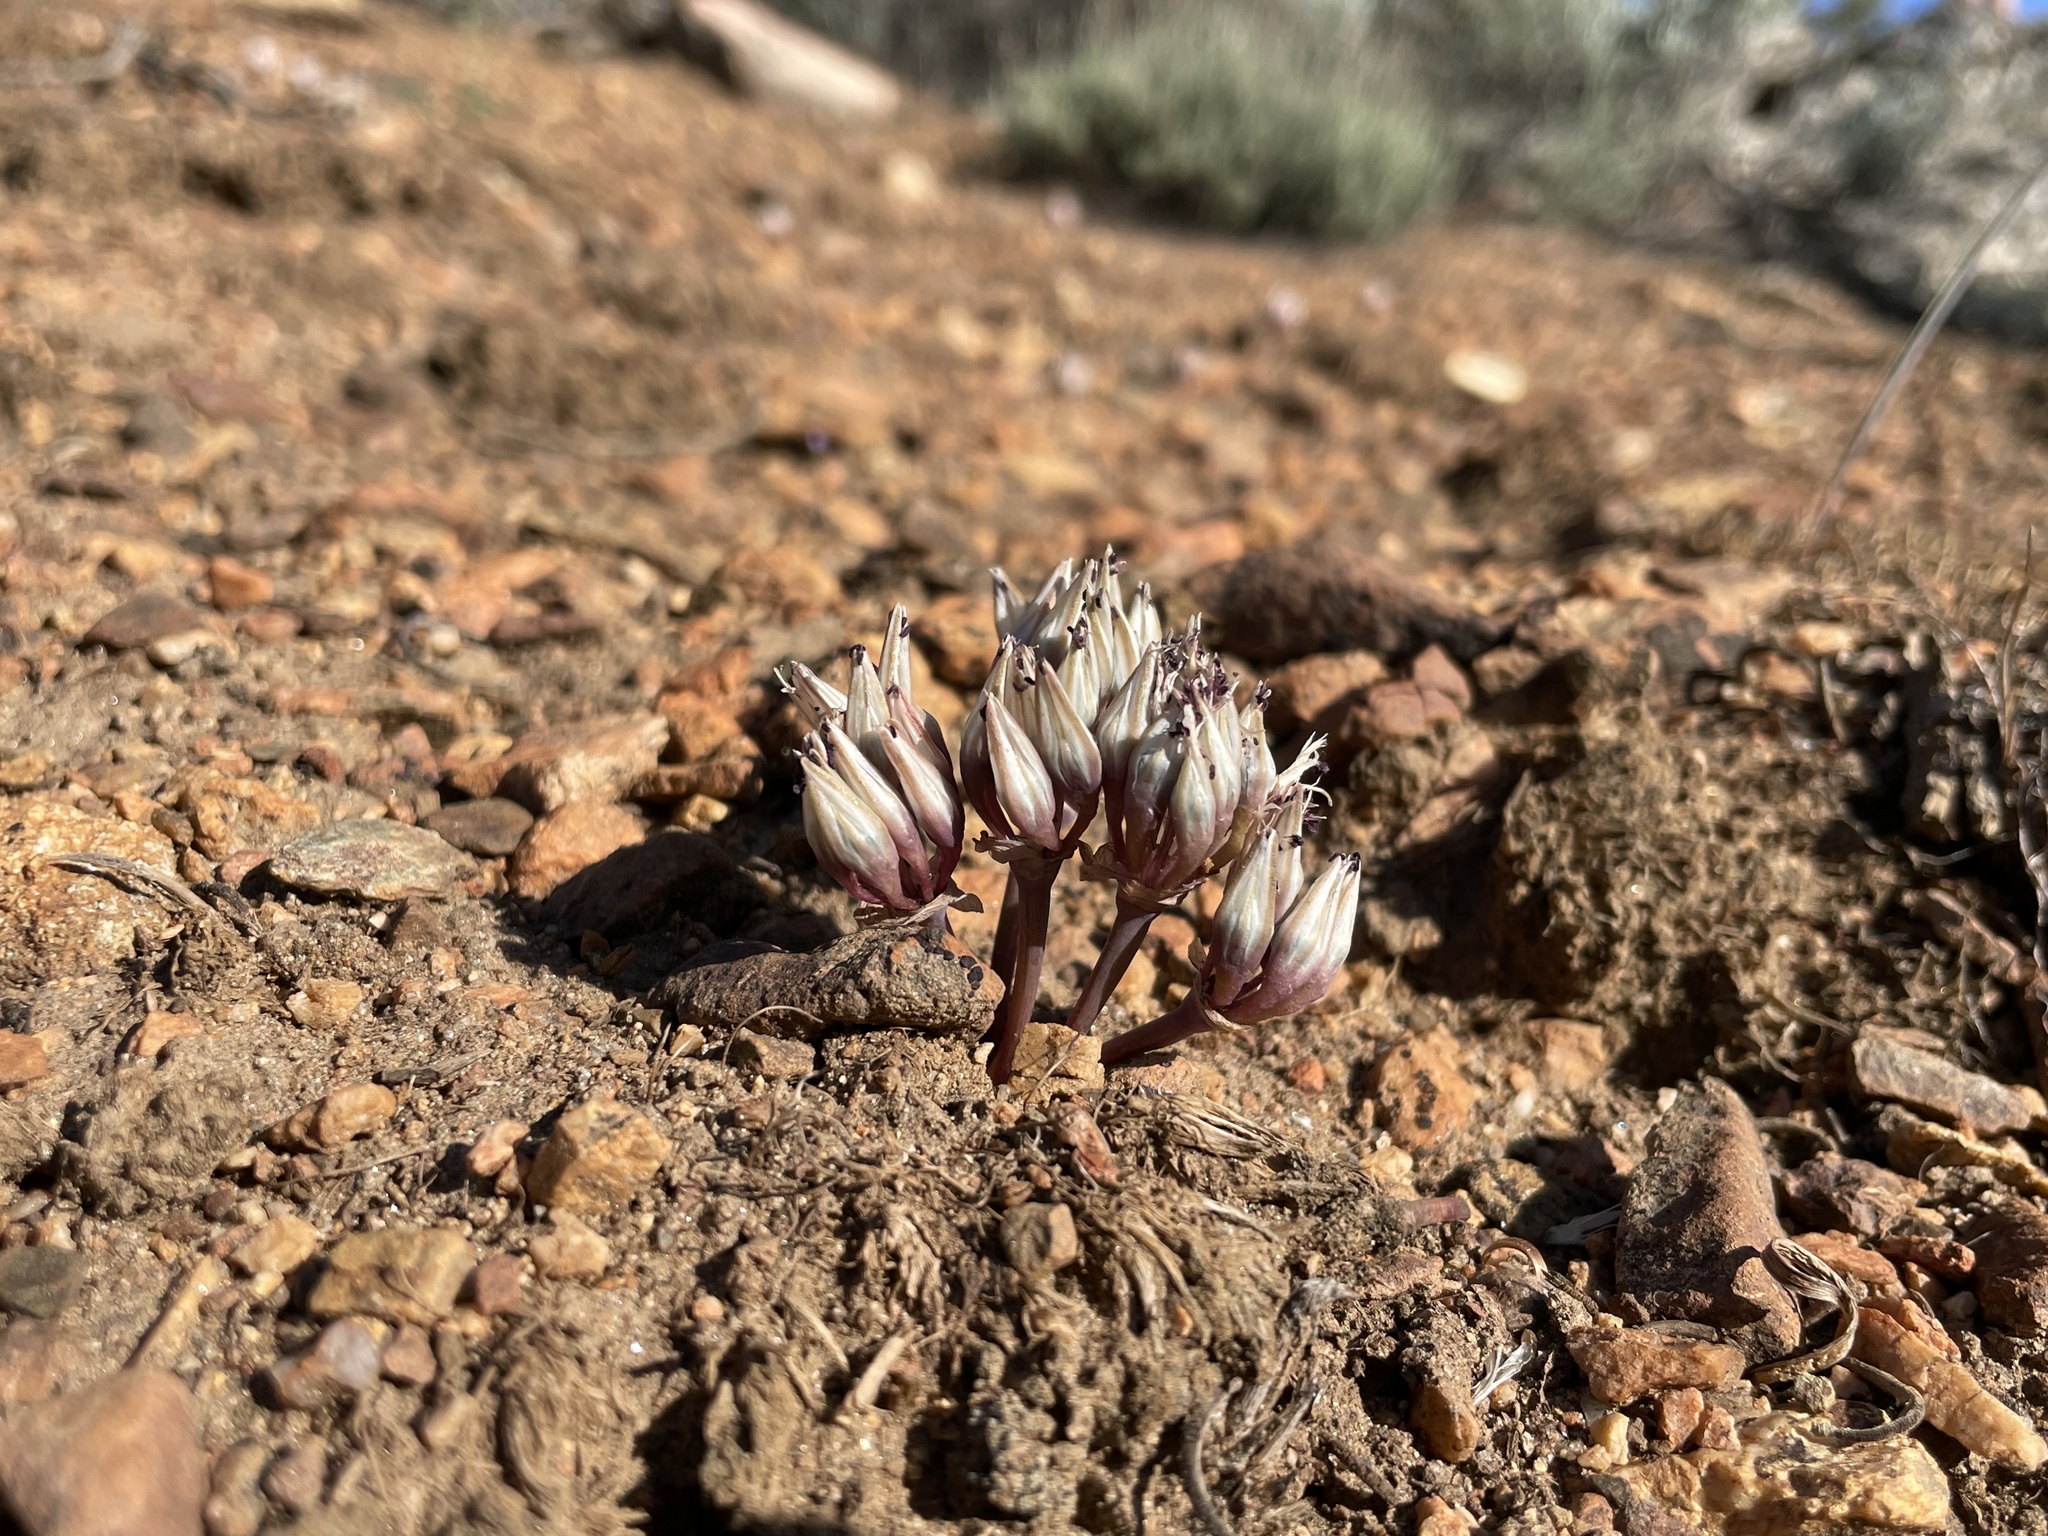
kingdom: Plantae
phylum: Tracheophyta
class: Liliopsida
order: Asparagales
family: Amaryllidaceae
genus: Allium
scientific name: Allium burlewii
